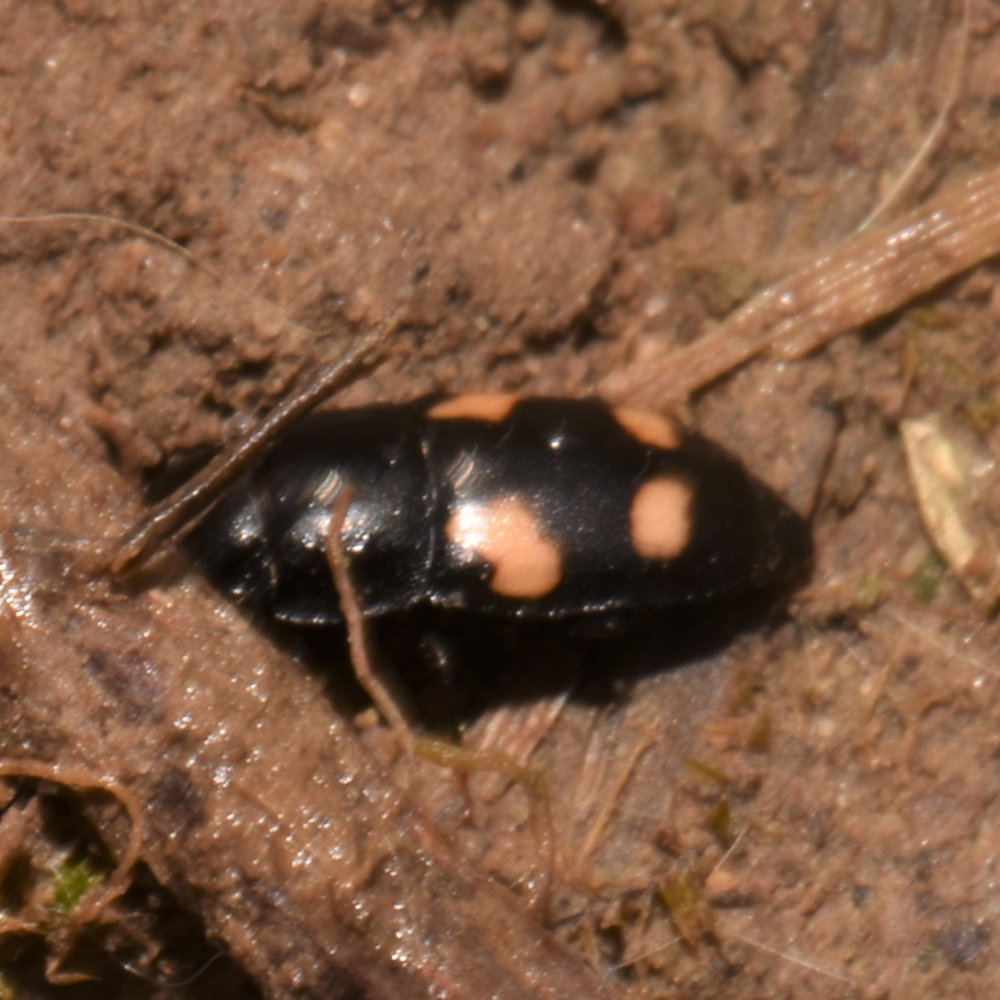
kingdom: Animalia
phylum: Arthropoda
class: Insecta
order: Coleoptera
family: Nitidulidae
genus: Glischrochilus
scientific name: Glischrochilus quadrisignatus
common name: Picnic beetle
